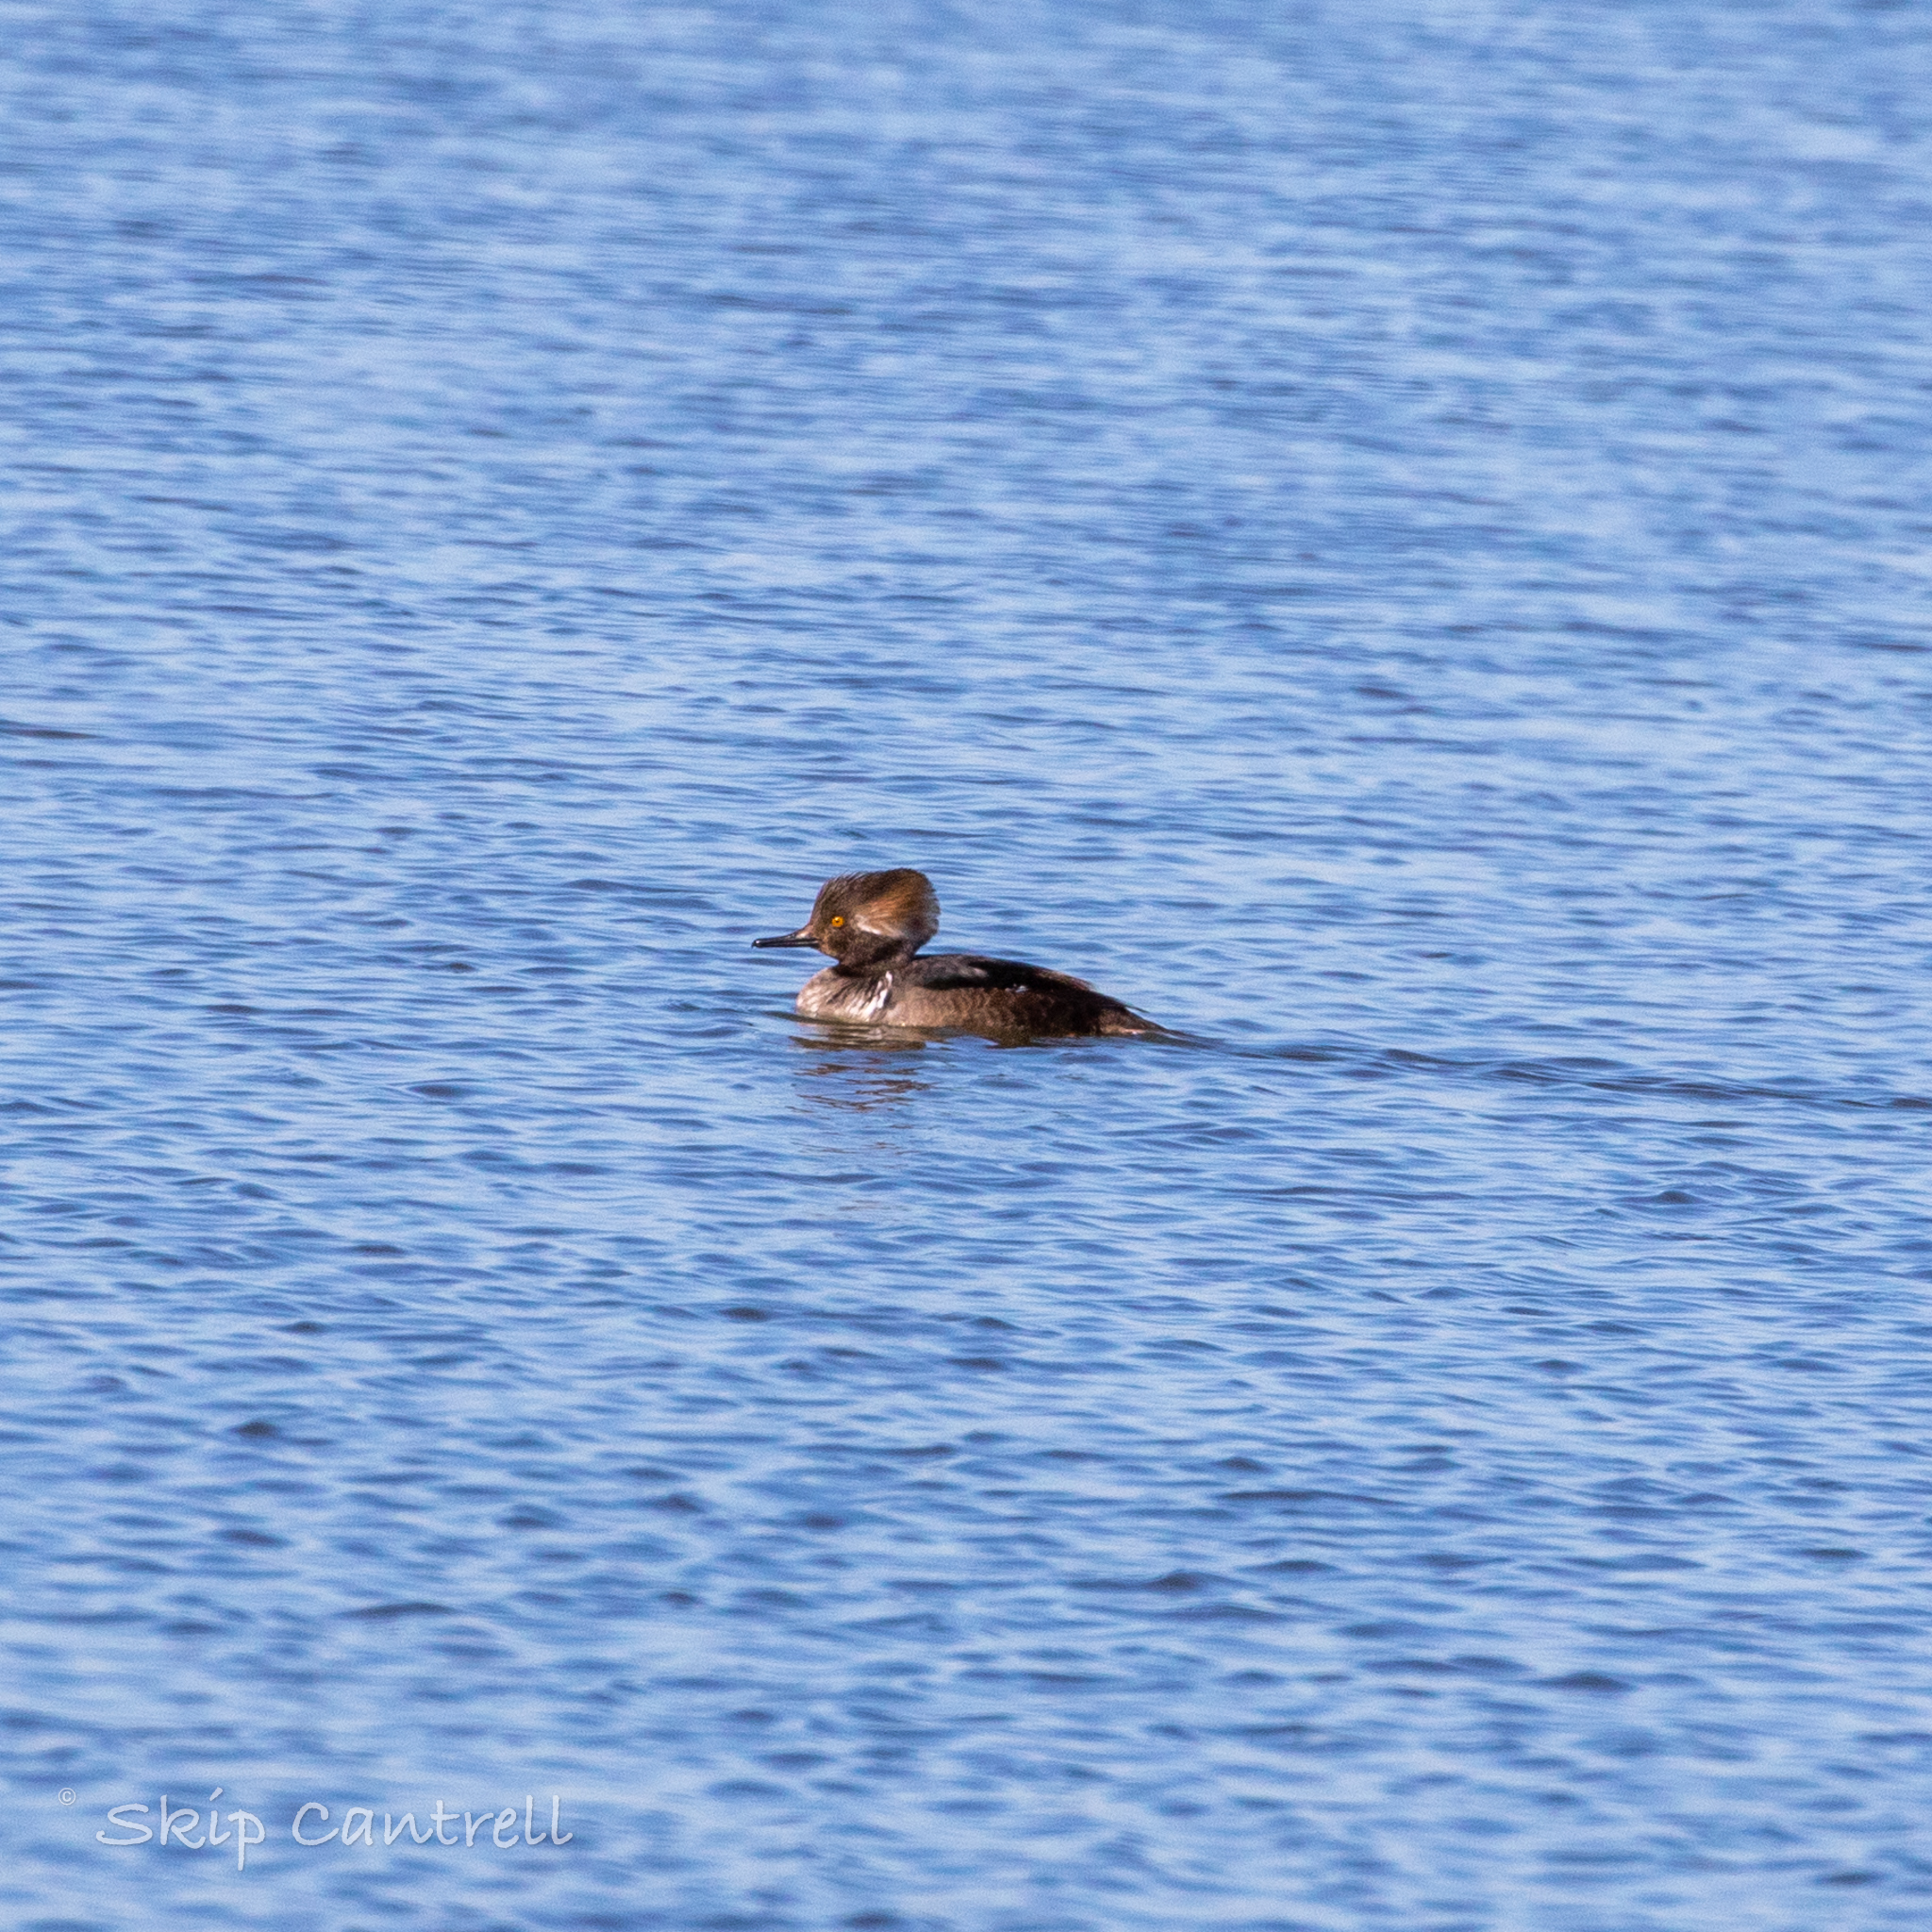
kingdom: Animalia
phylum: Chordata
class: Aves
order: Anseriformes
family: Anatidae
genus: Lophodytes
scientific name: Lophodytes cucullatus
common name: Hooded merganser
